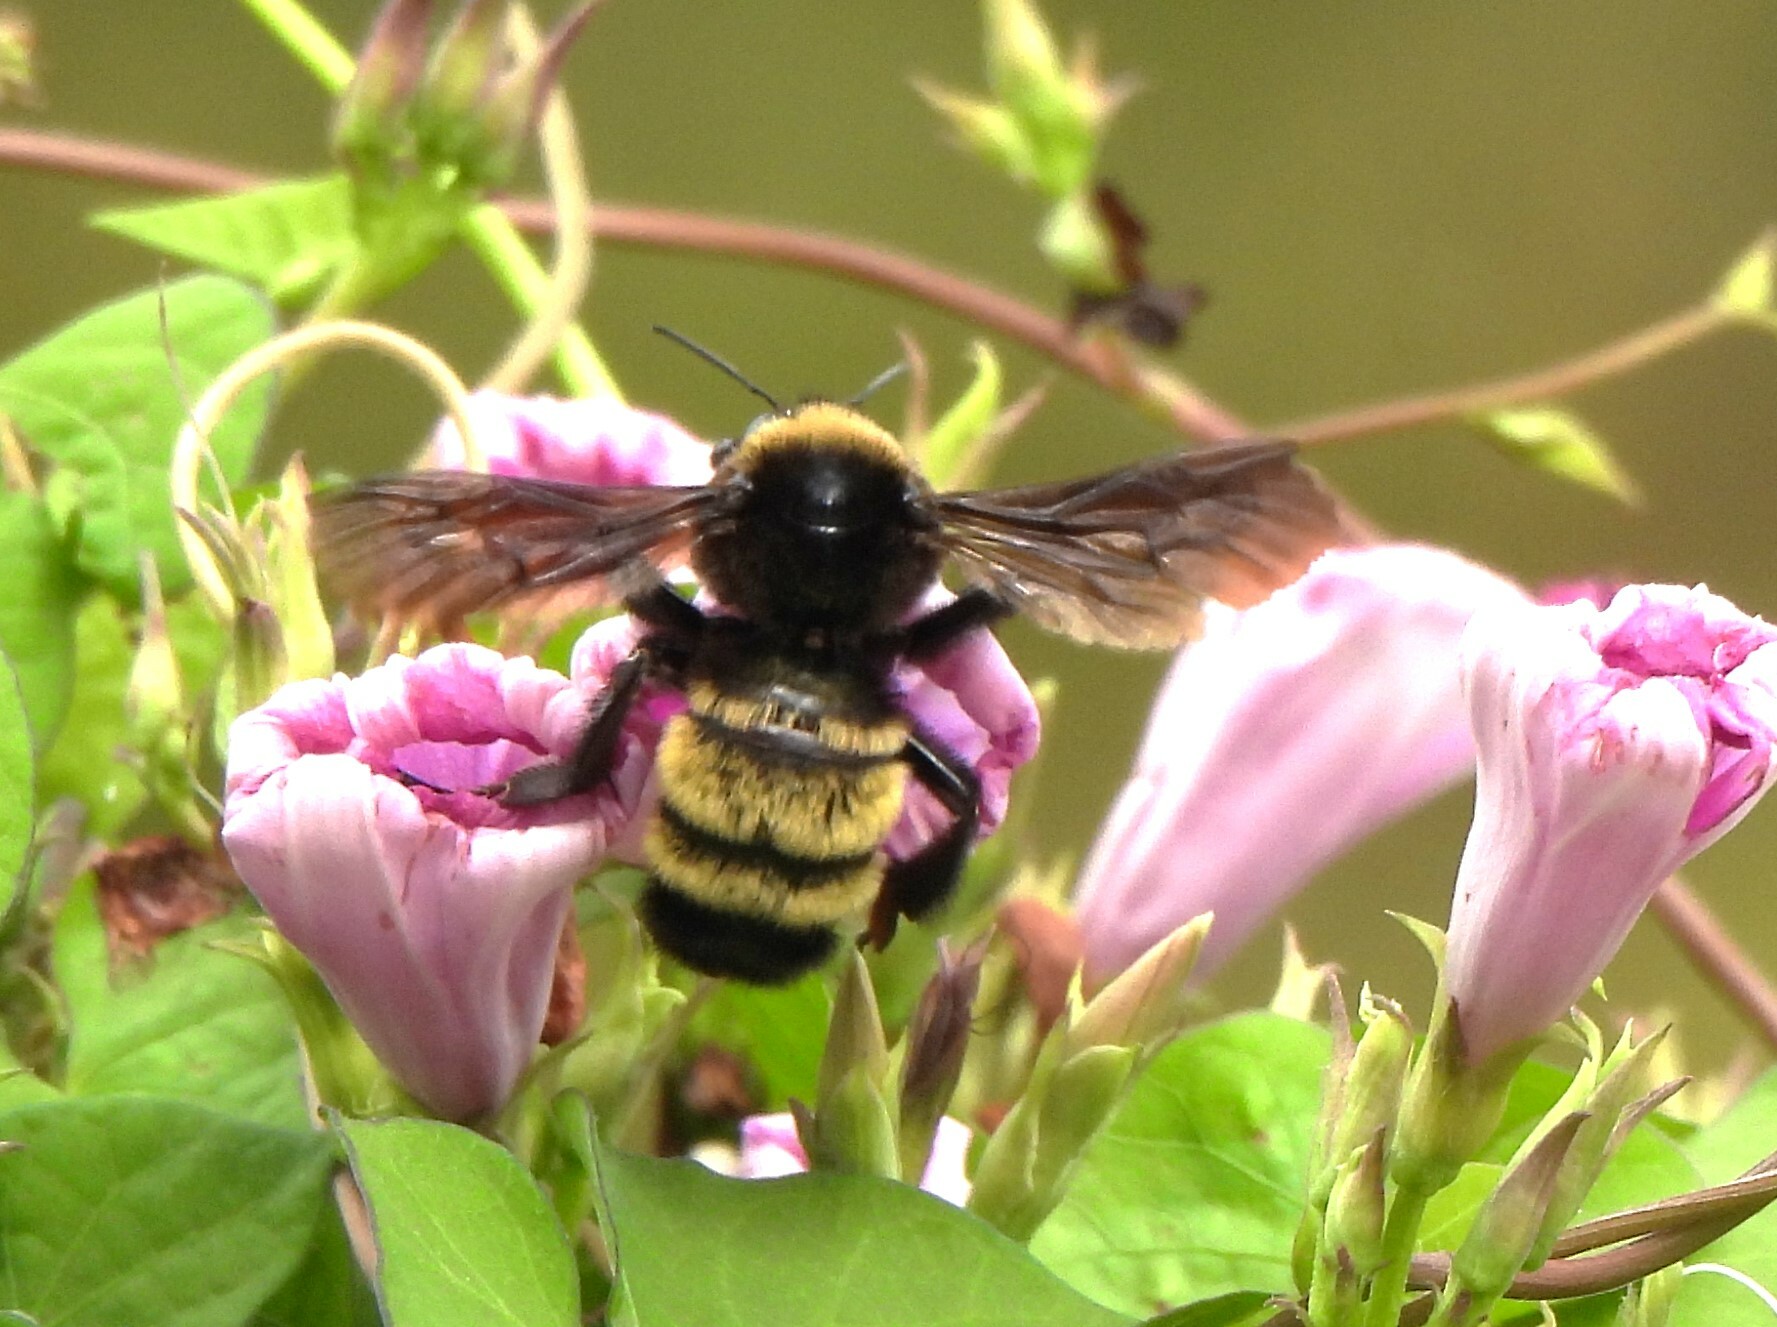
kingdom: Animalia
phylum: Arthropoda
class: Insecta
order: Hymenoptera
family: Apidae
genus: Bombus
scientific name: Bombus pensylvanicus
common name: Bumble bee
